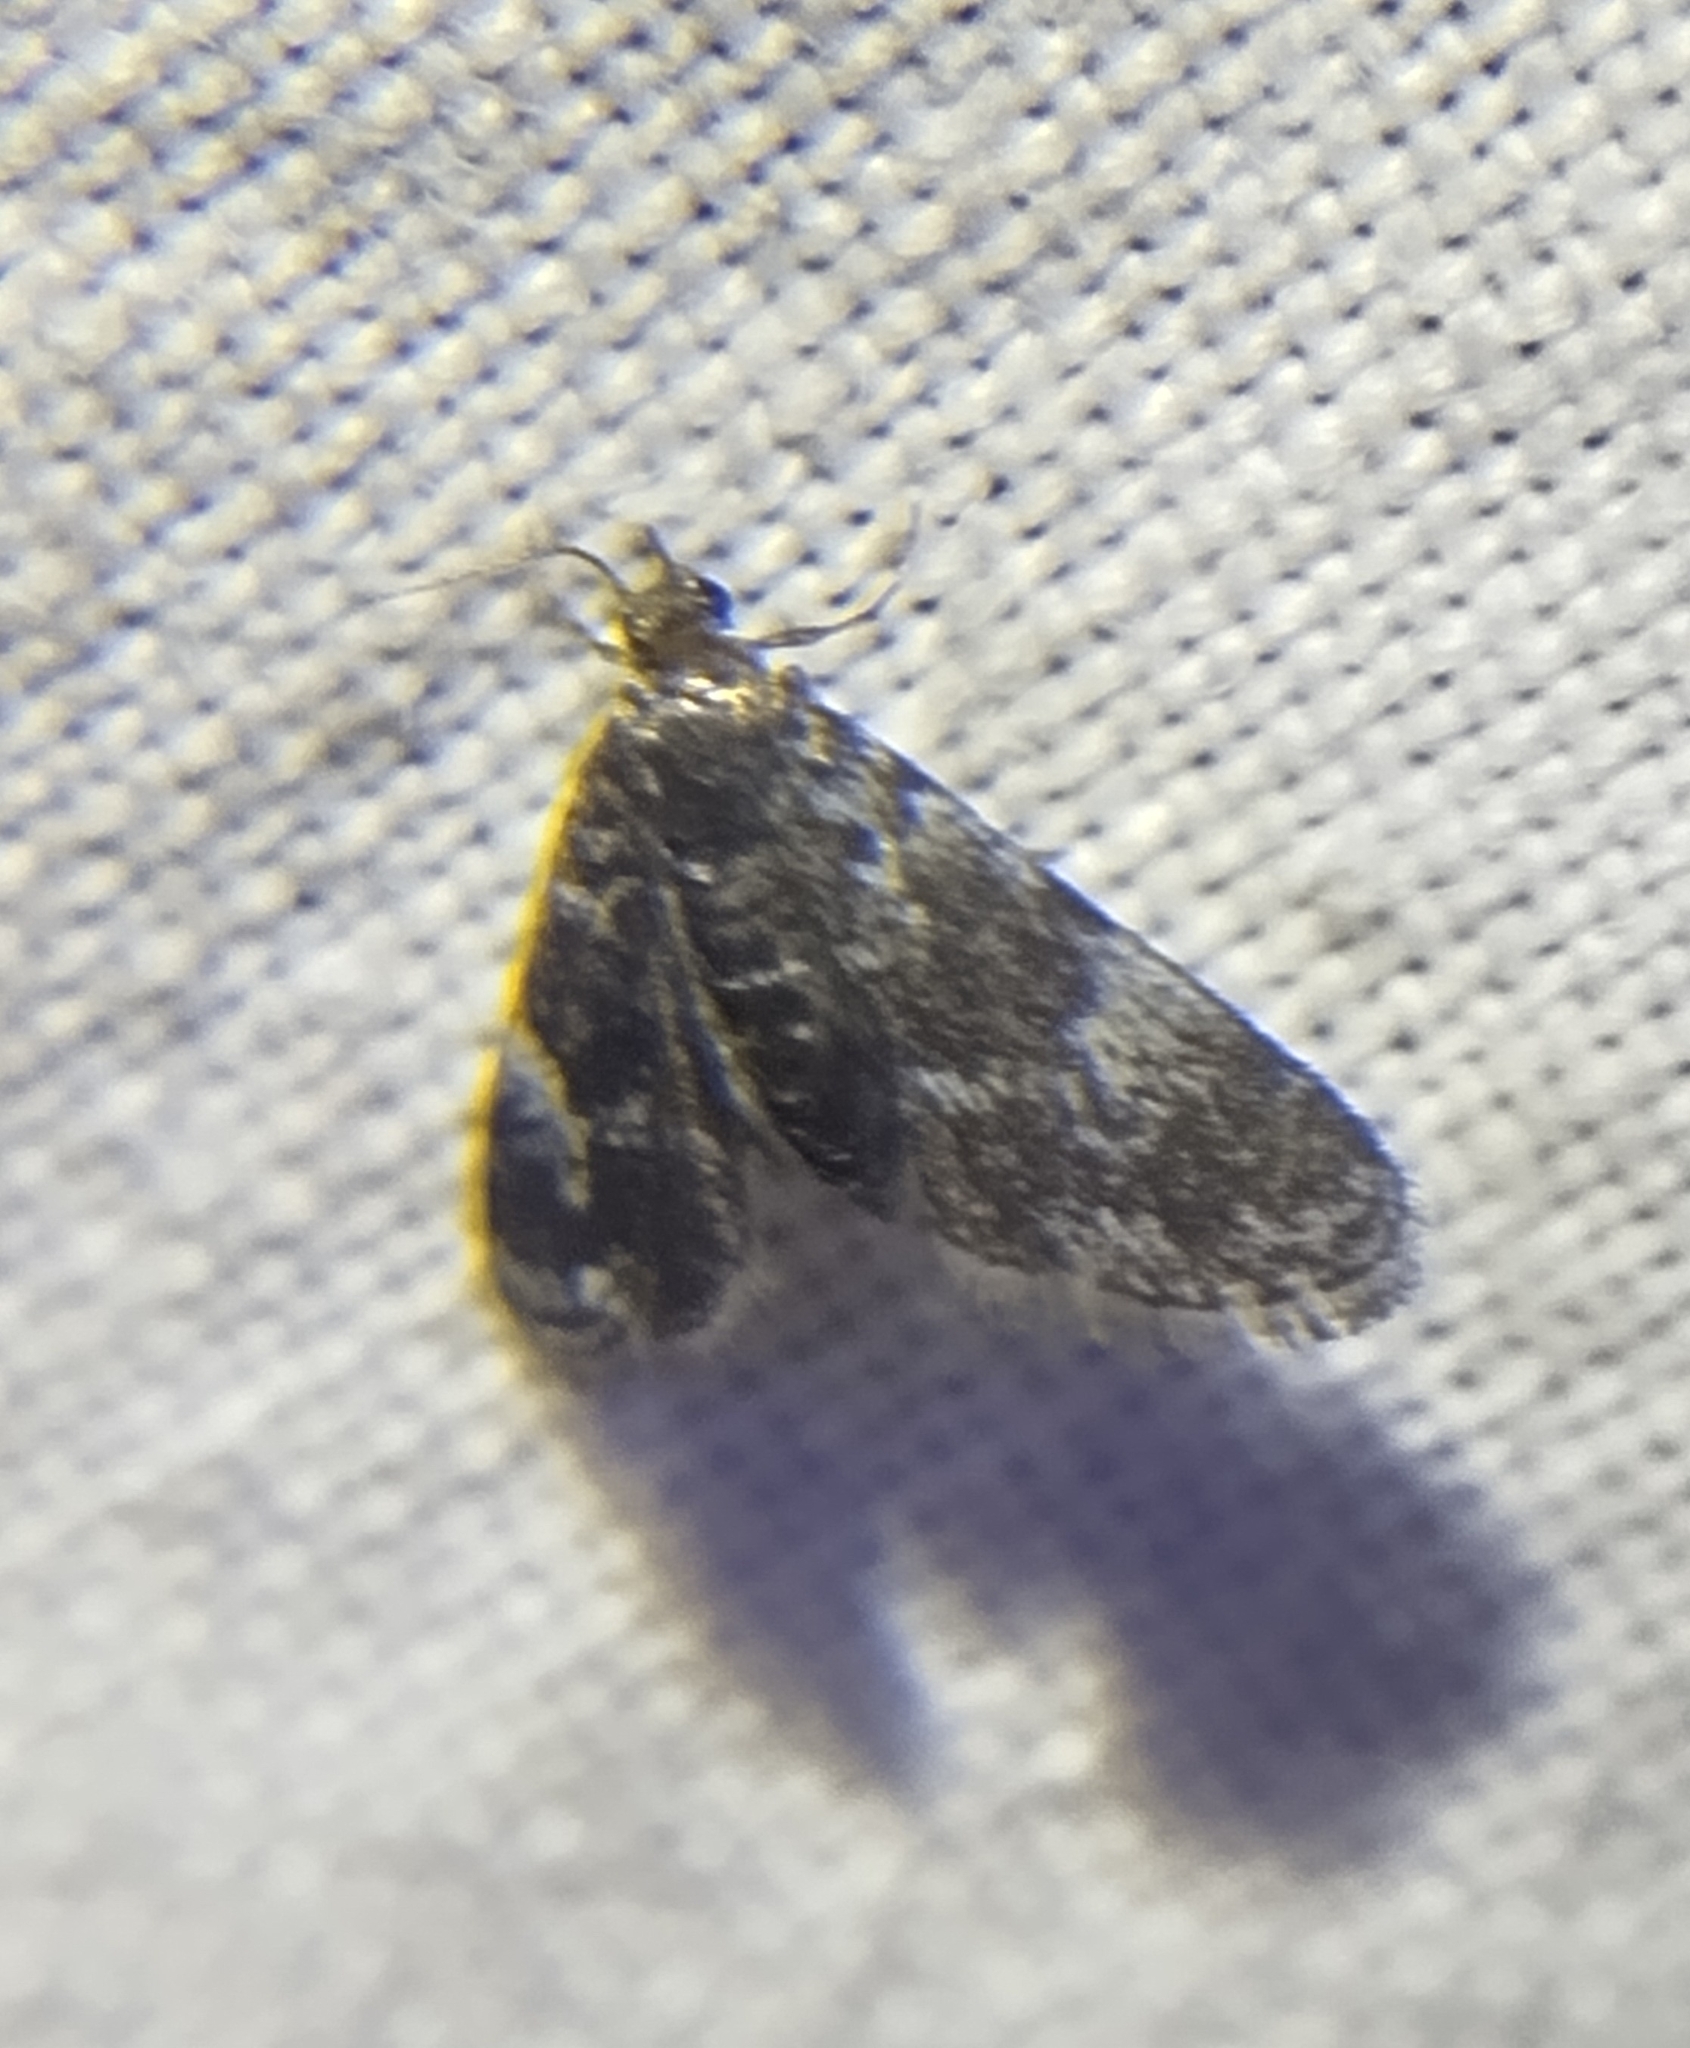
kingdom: Animalia
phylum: Arthropoda
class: Insecta
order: Lepidoptera
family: Crambidae
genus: Elophila
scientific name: Elophila tinealis
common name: Black duckweed moth
